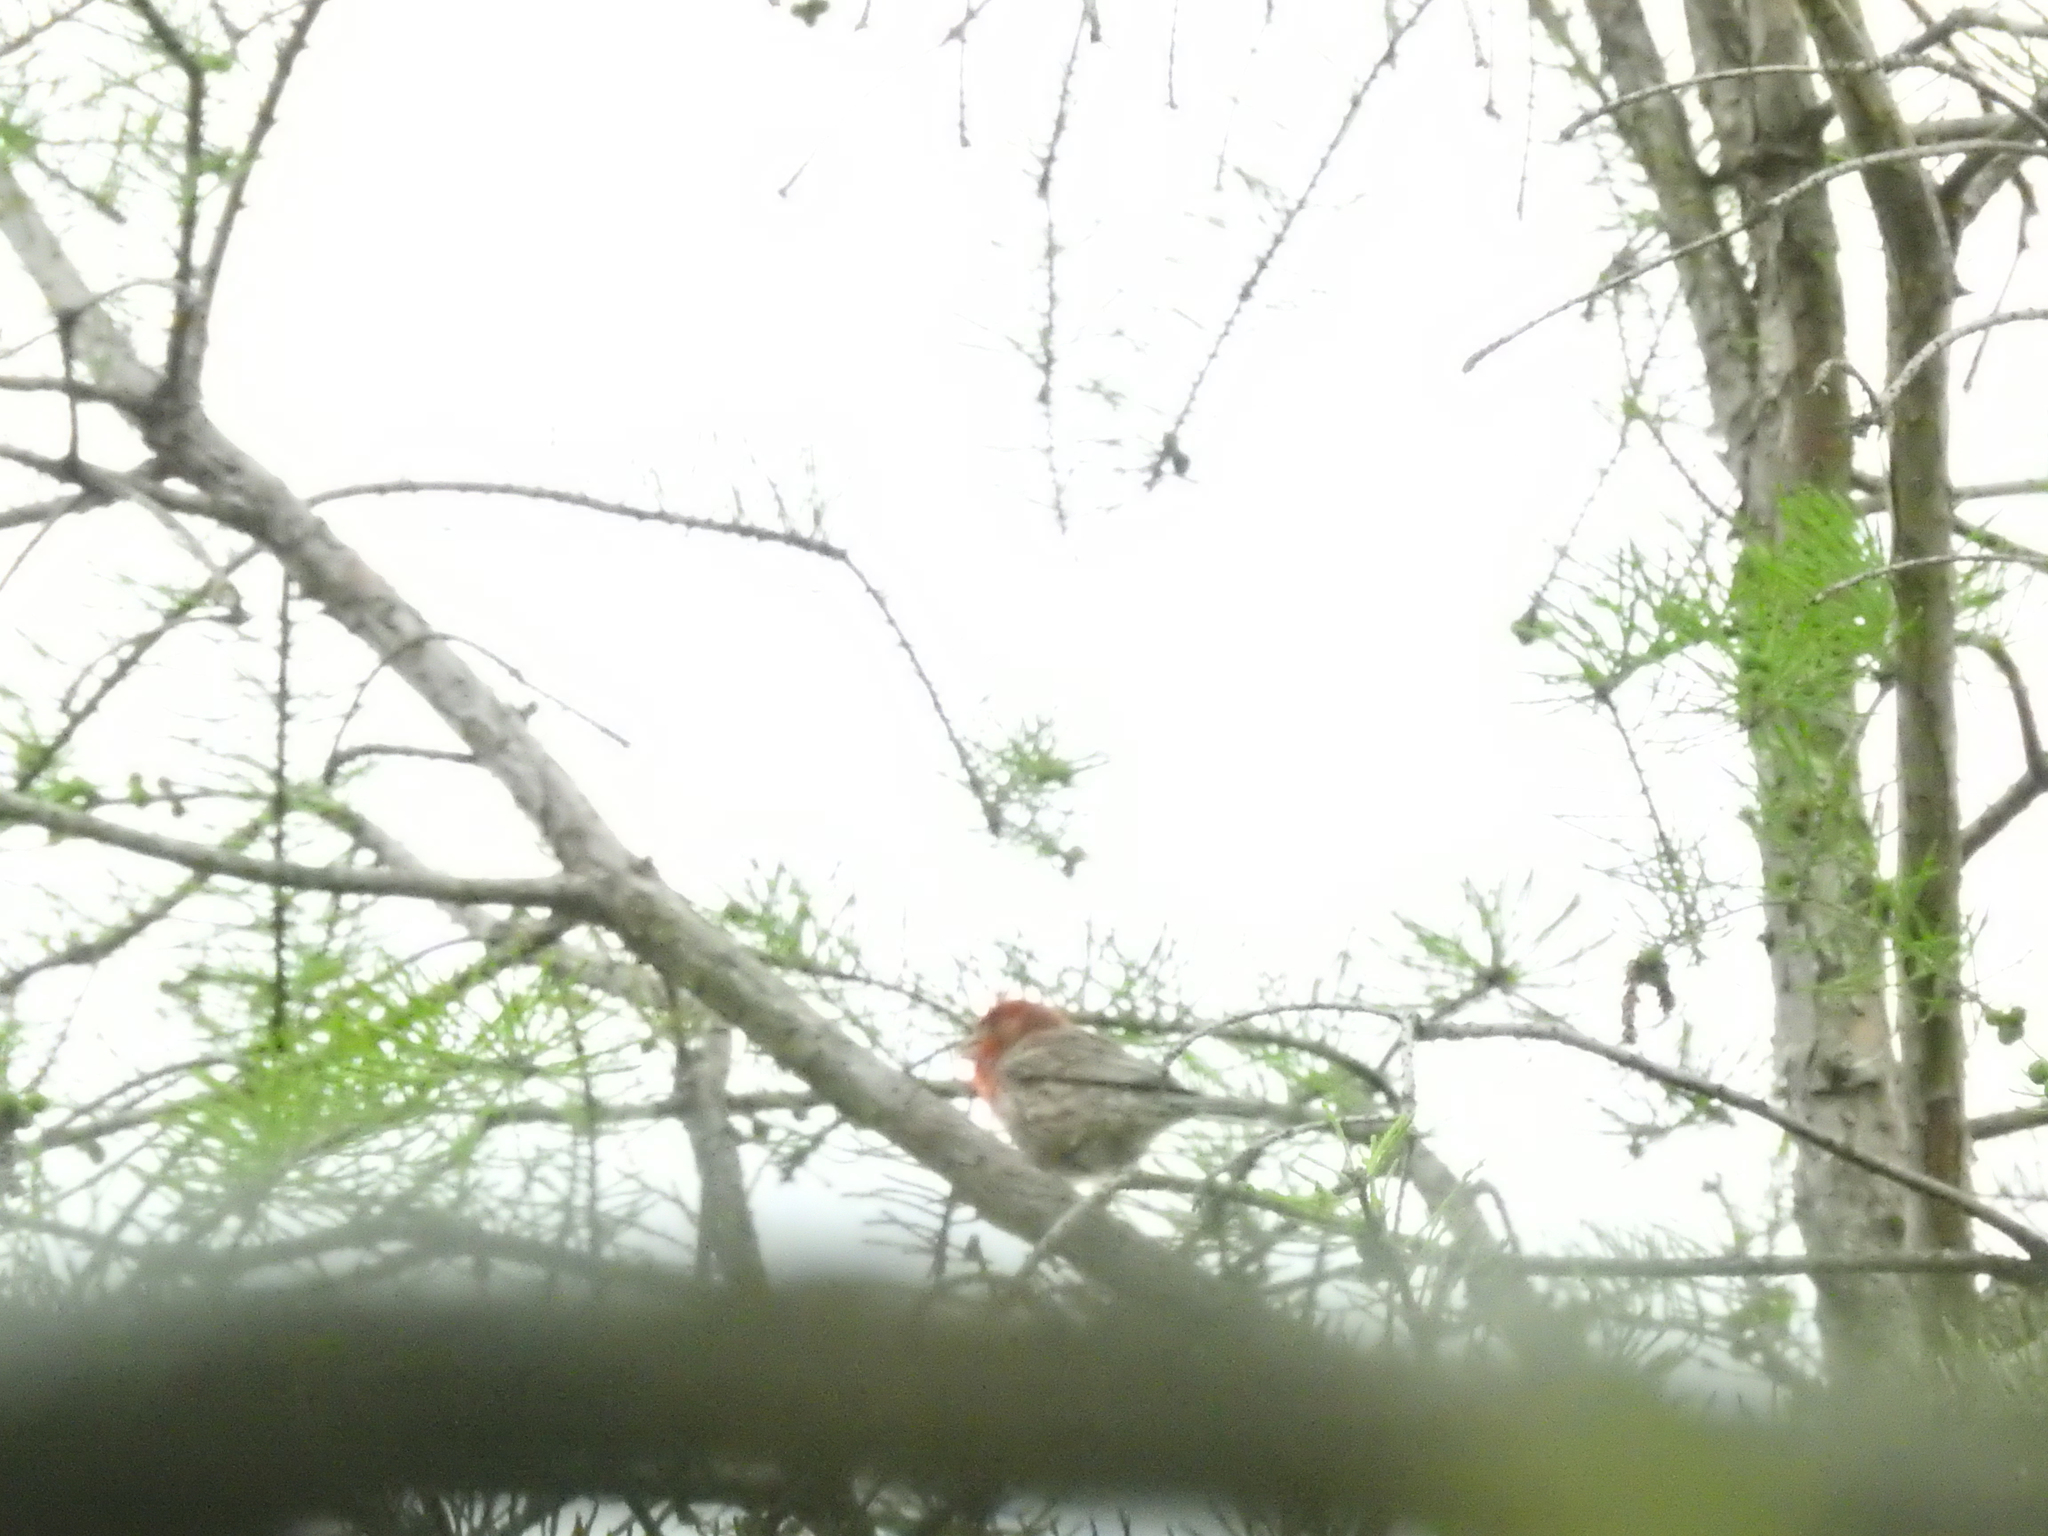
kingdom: Animalia
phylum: Chordata
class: Aves
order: Passeriformes
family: Fringillidae
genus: Haemorhous
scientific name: Haemorhous mexicanus
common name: House finch
